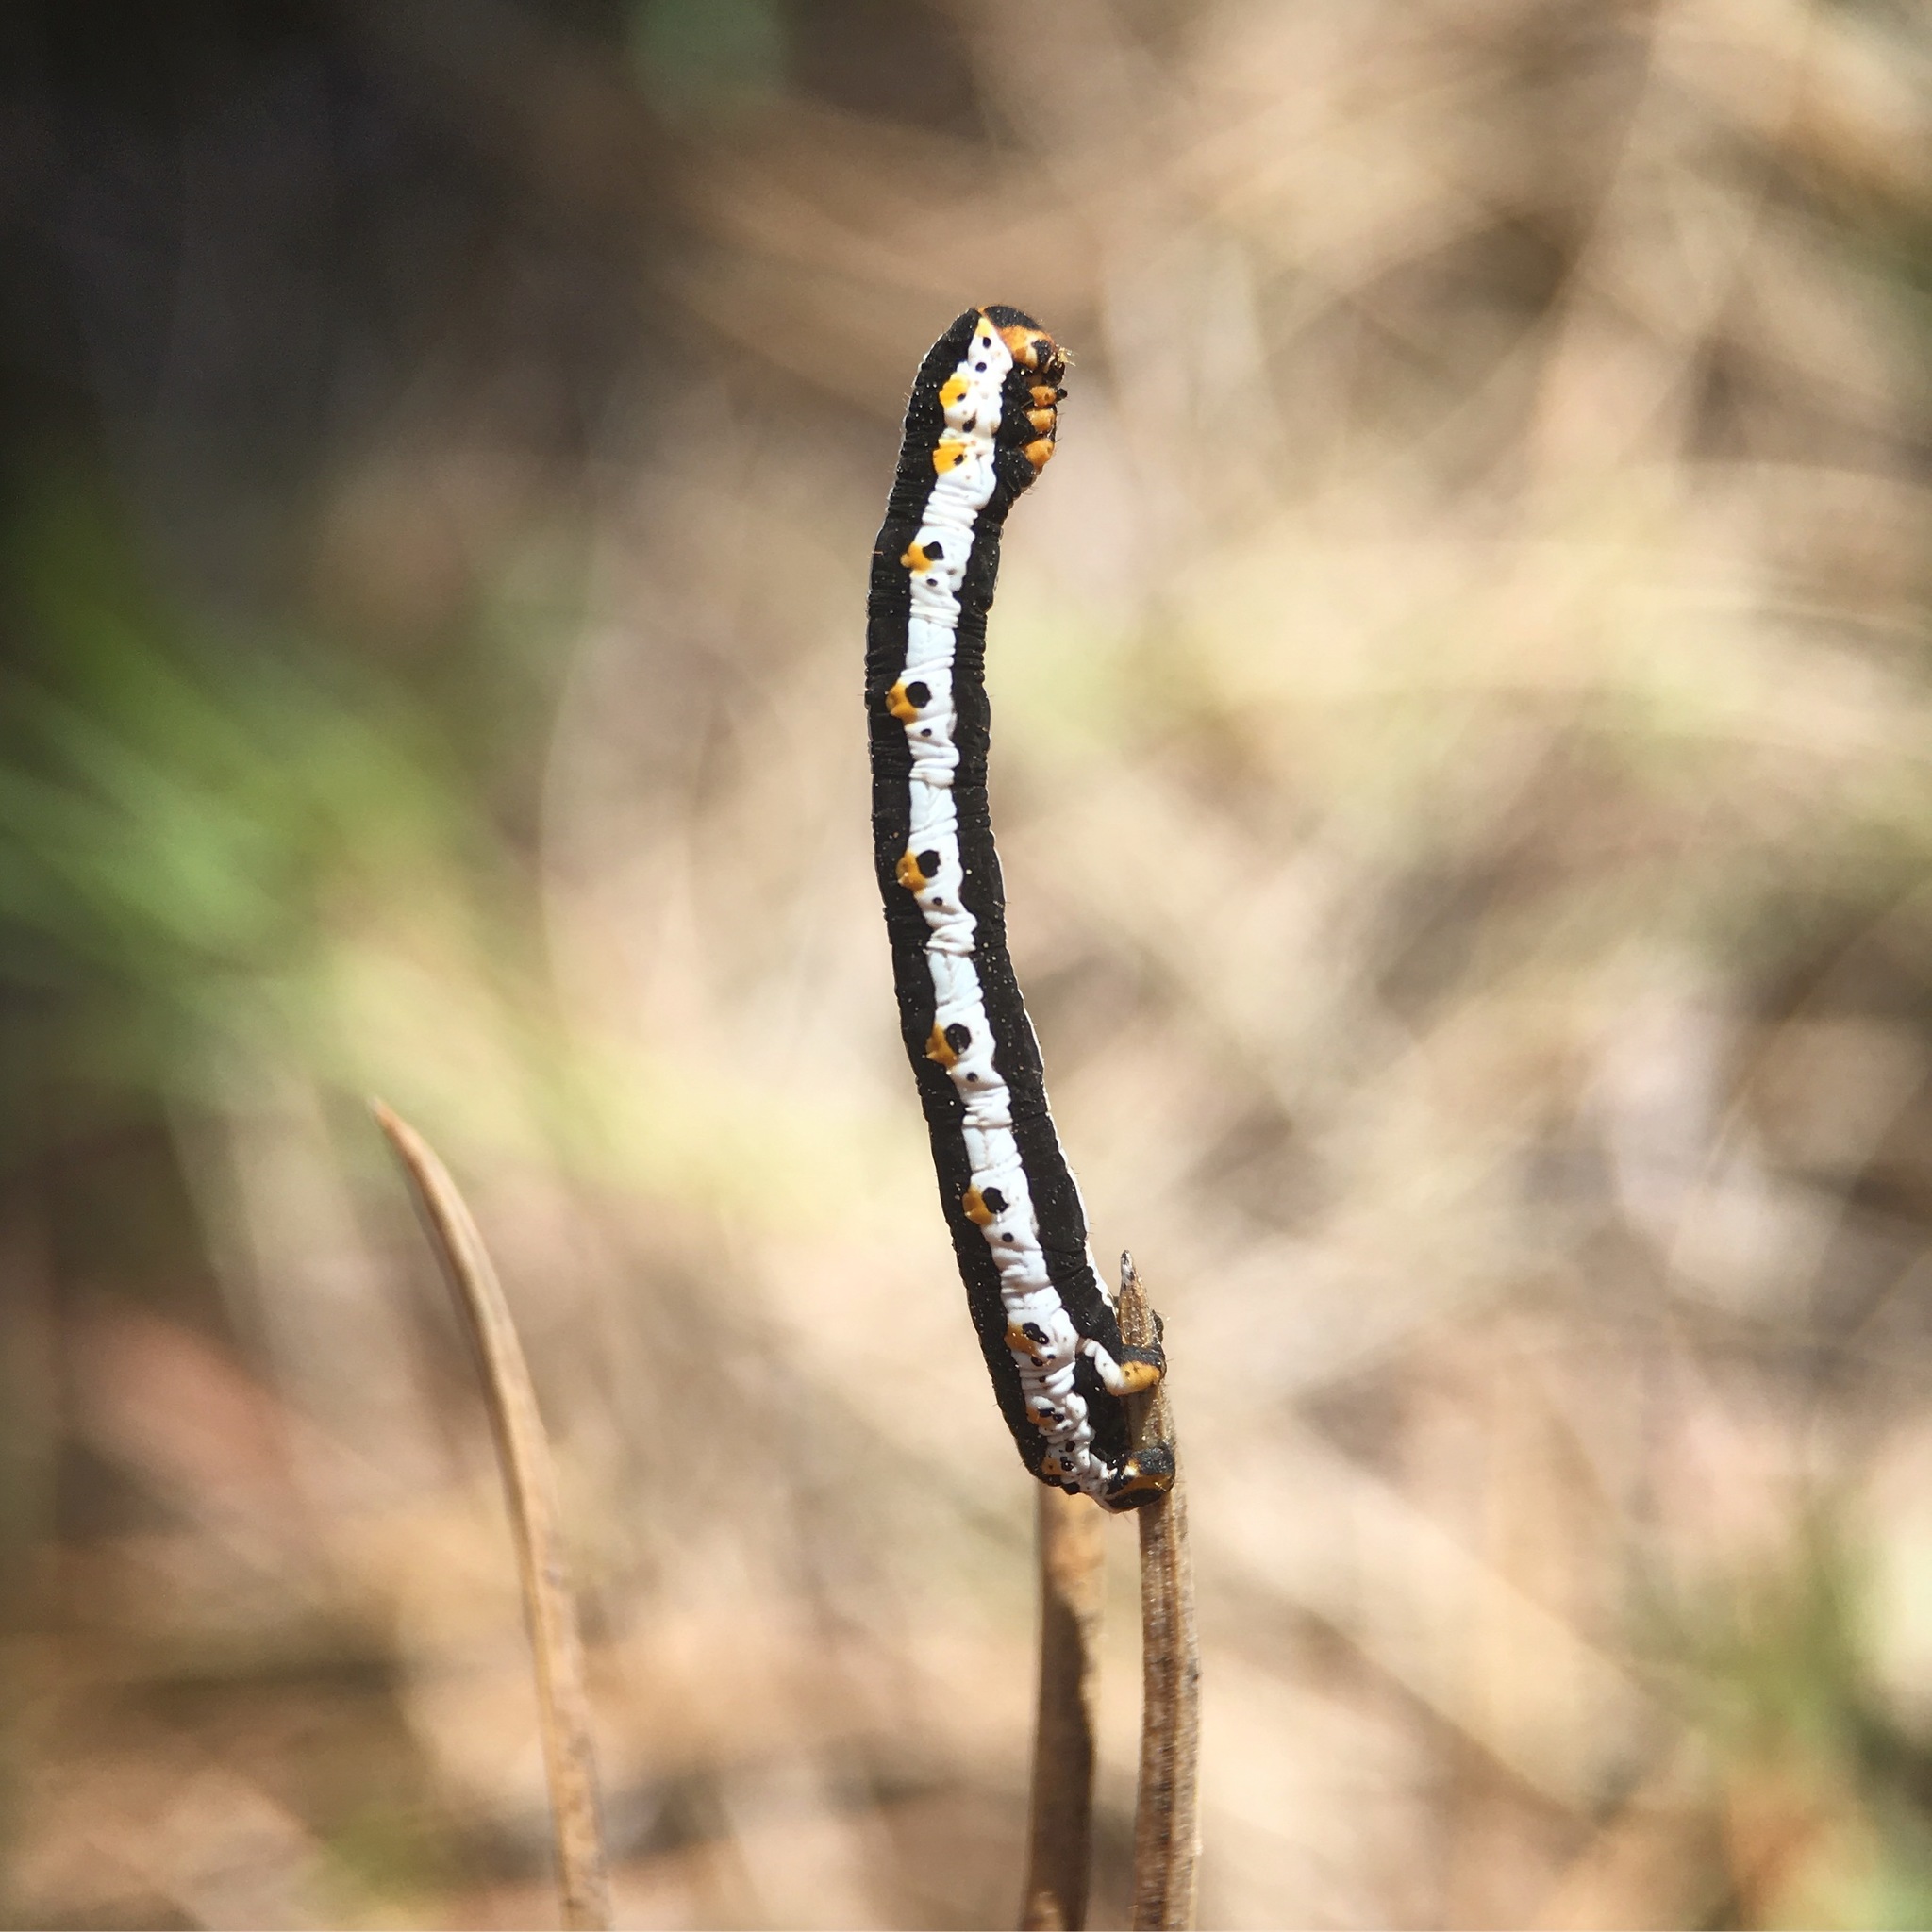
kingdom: Animalia
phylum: Arthropoda
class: Insecta
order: Lepidoptera
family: Geometridae
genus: Meris
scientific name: Meris alticola
